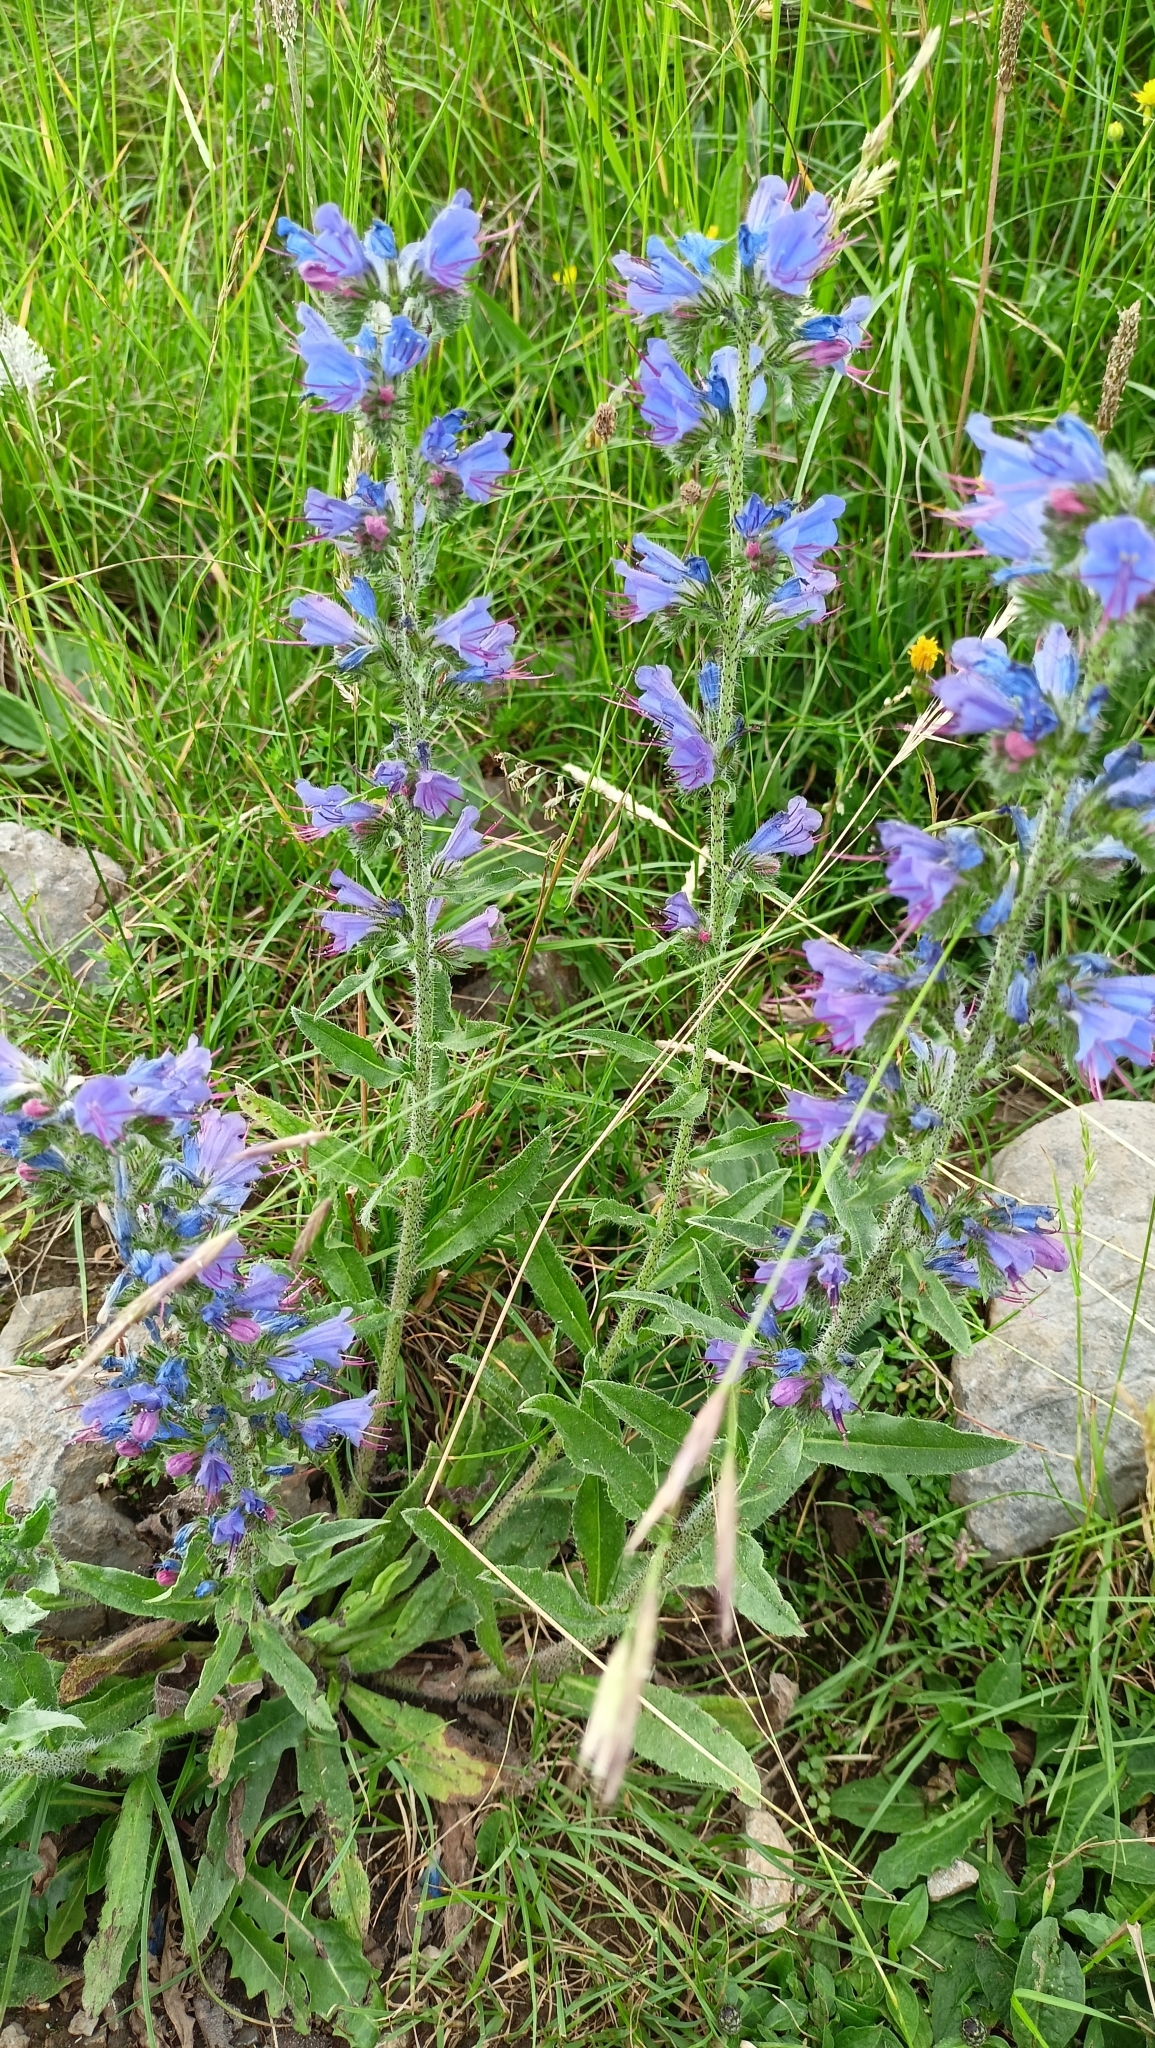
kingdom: Plantae
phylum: Tracheophyta
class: Magnoliopsida
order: Boraginales
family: Boraginaceae
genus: Echium
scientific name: Echium vulgare
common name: Common viper's bugloss
